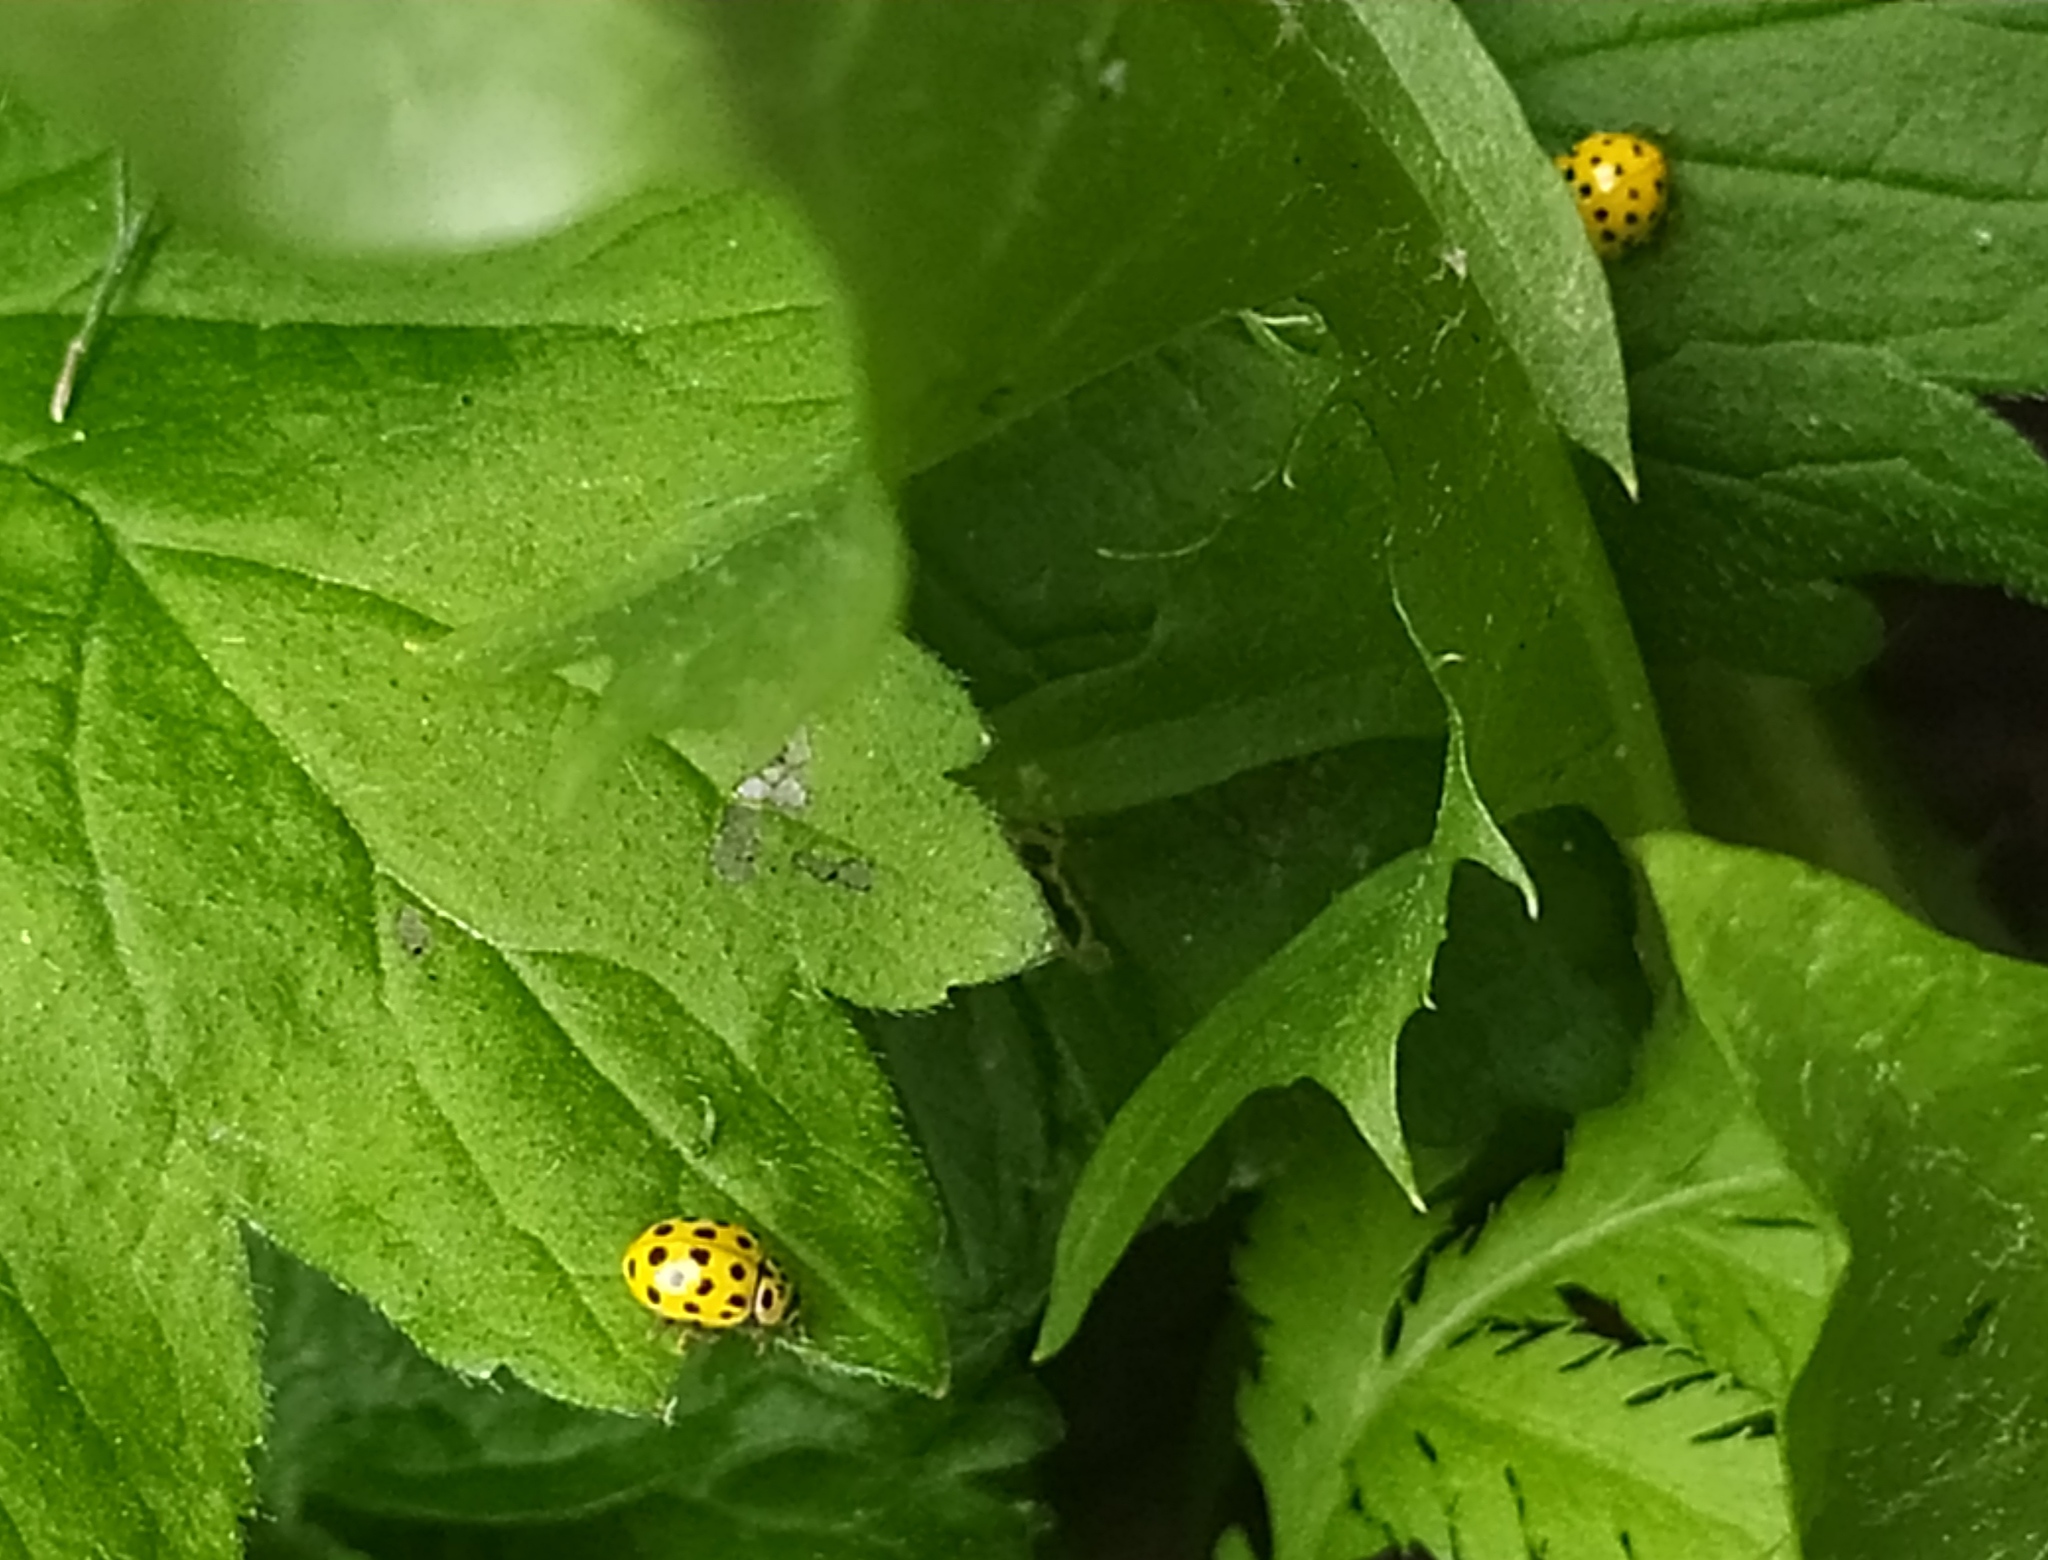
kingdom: Animalia
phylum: Arthropoda
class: Insecta
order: Coleoptera
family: Coccinellidae
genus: Psyllobora
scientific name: Psyllobora vigintiduopunctata
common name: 22-spot ladybird
